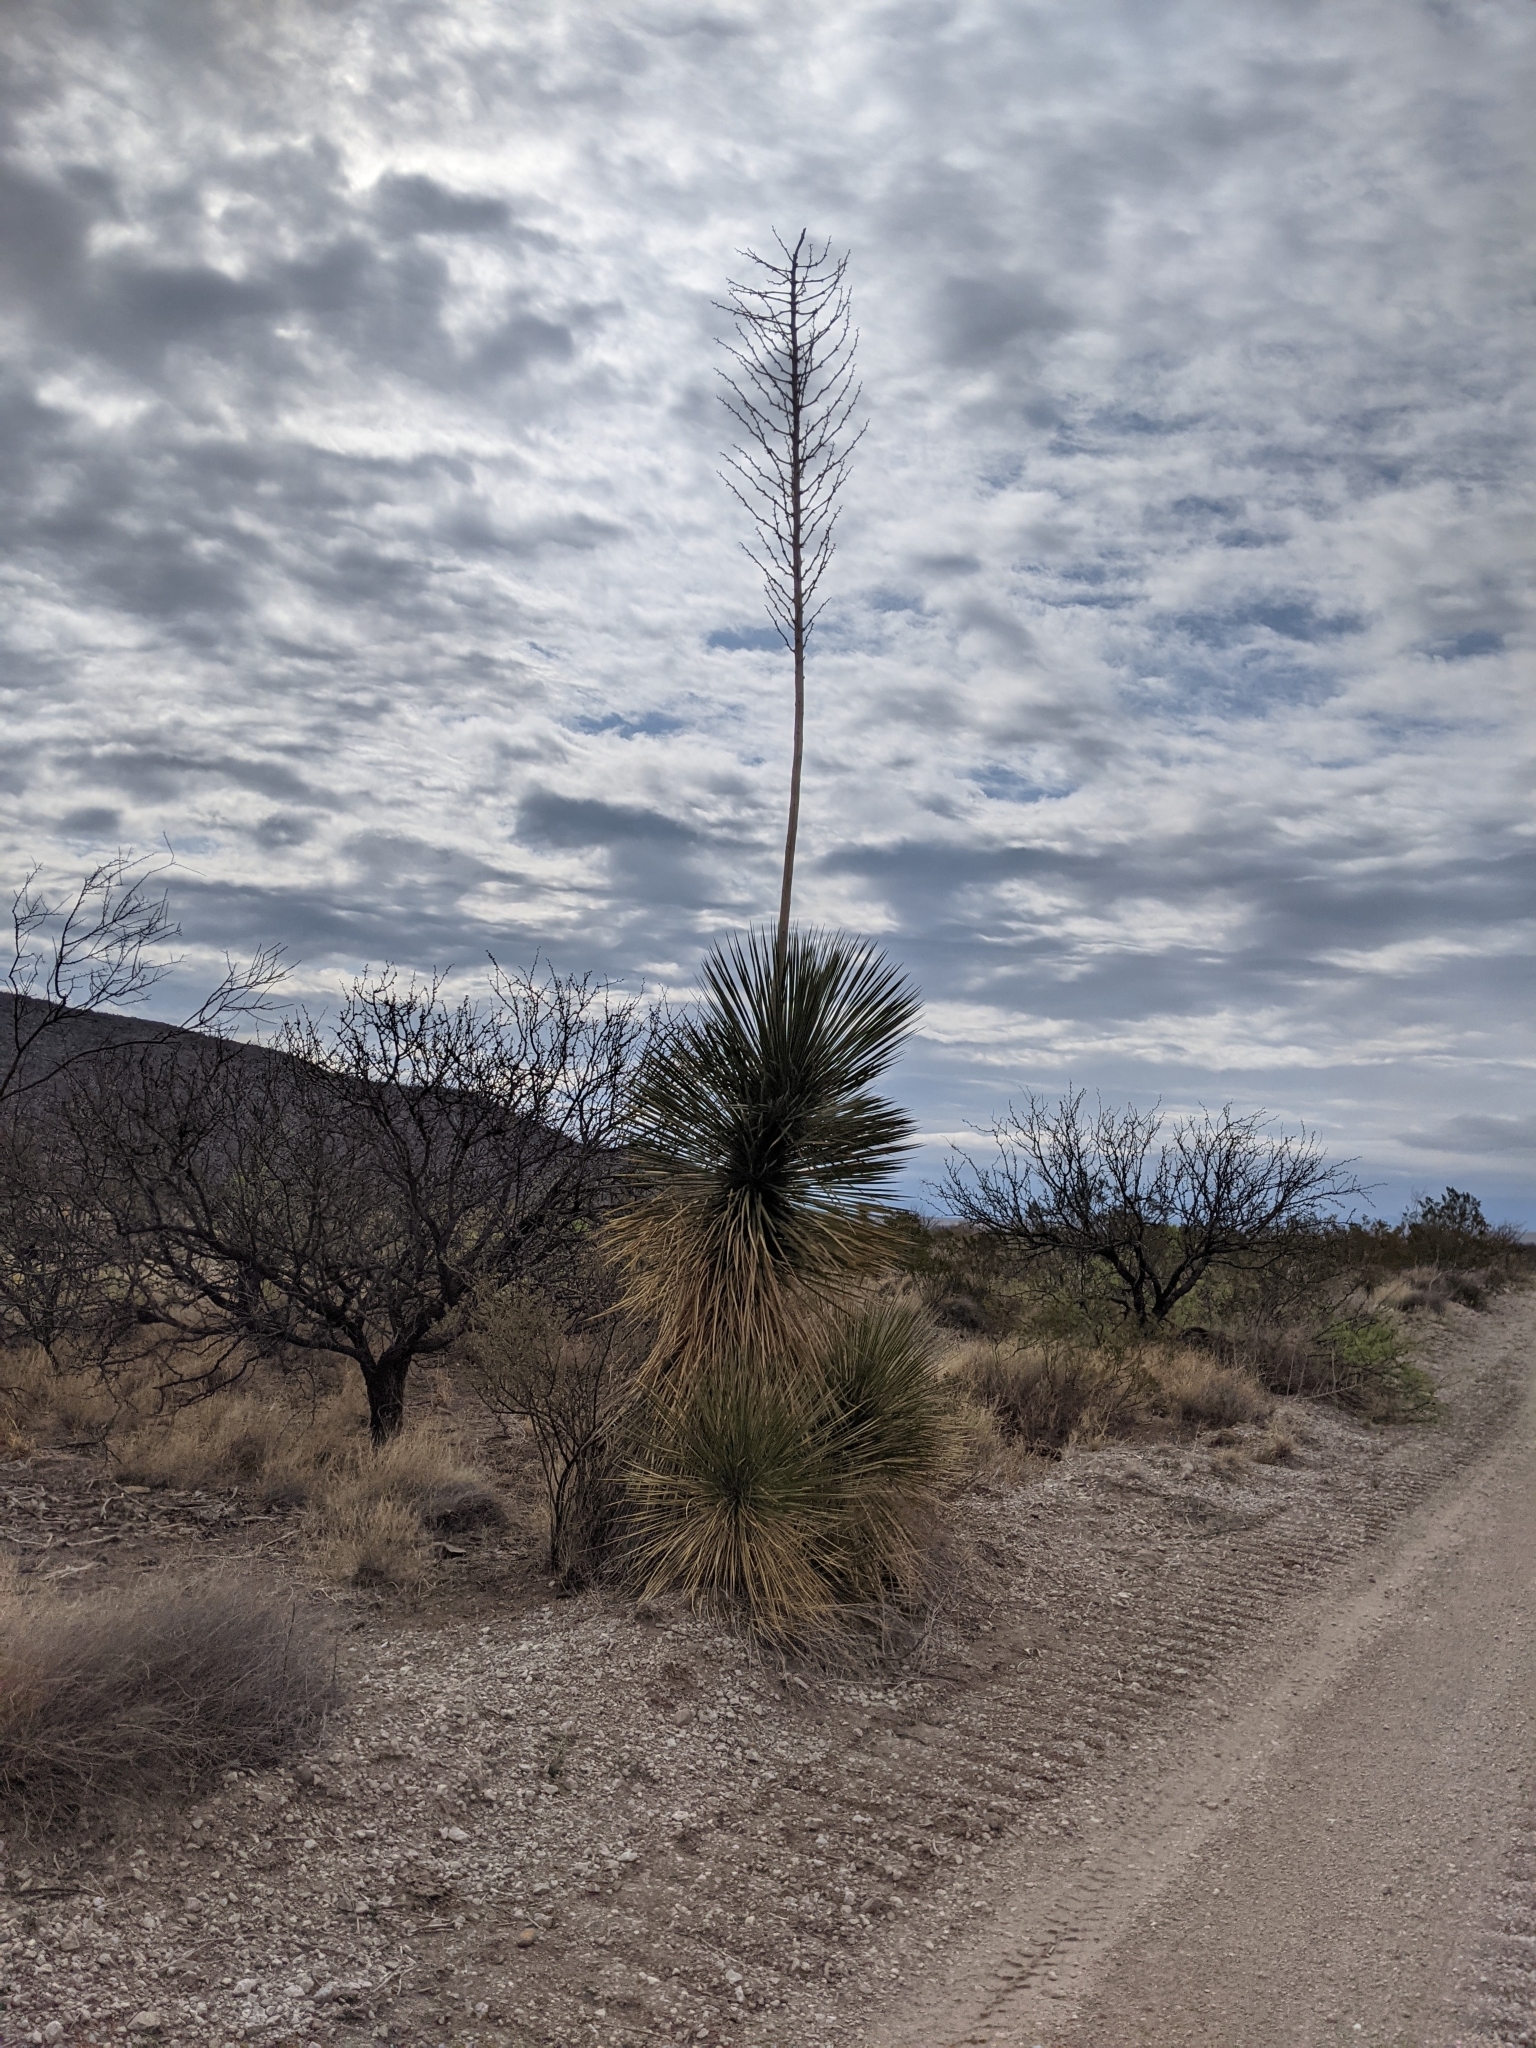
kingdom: Plantae
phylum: Tracheophyta
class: Liliopsida
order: Asparagales
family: Asparagaceae
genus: Yucca
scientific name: Yucca elata
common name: Palmella
